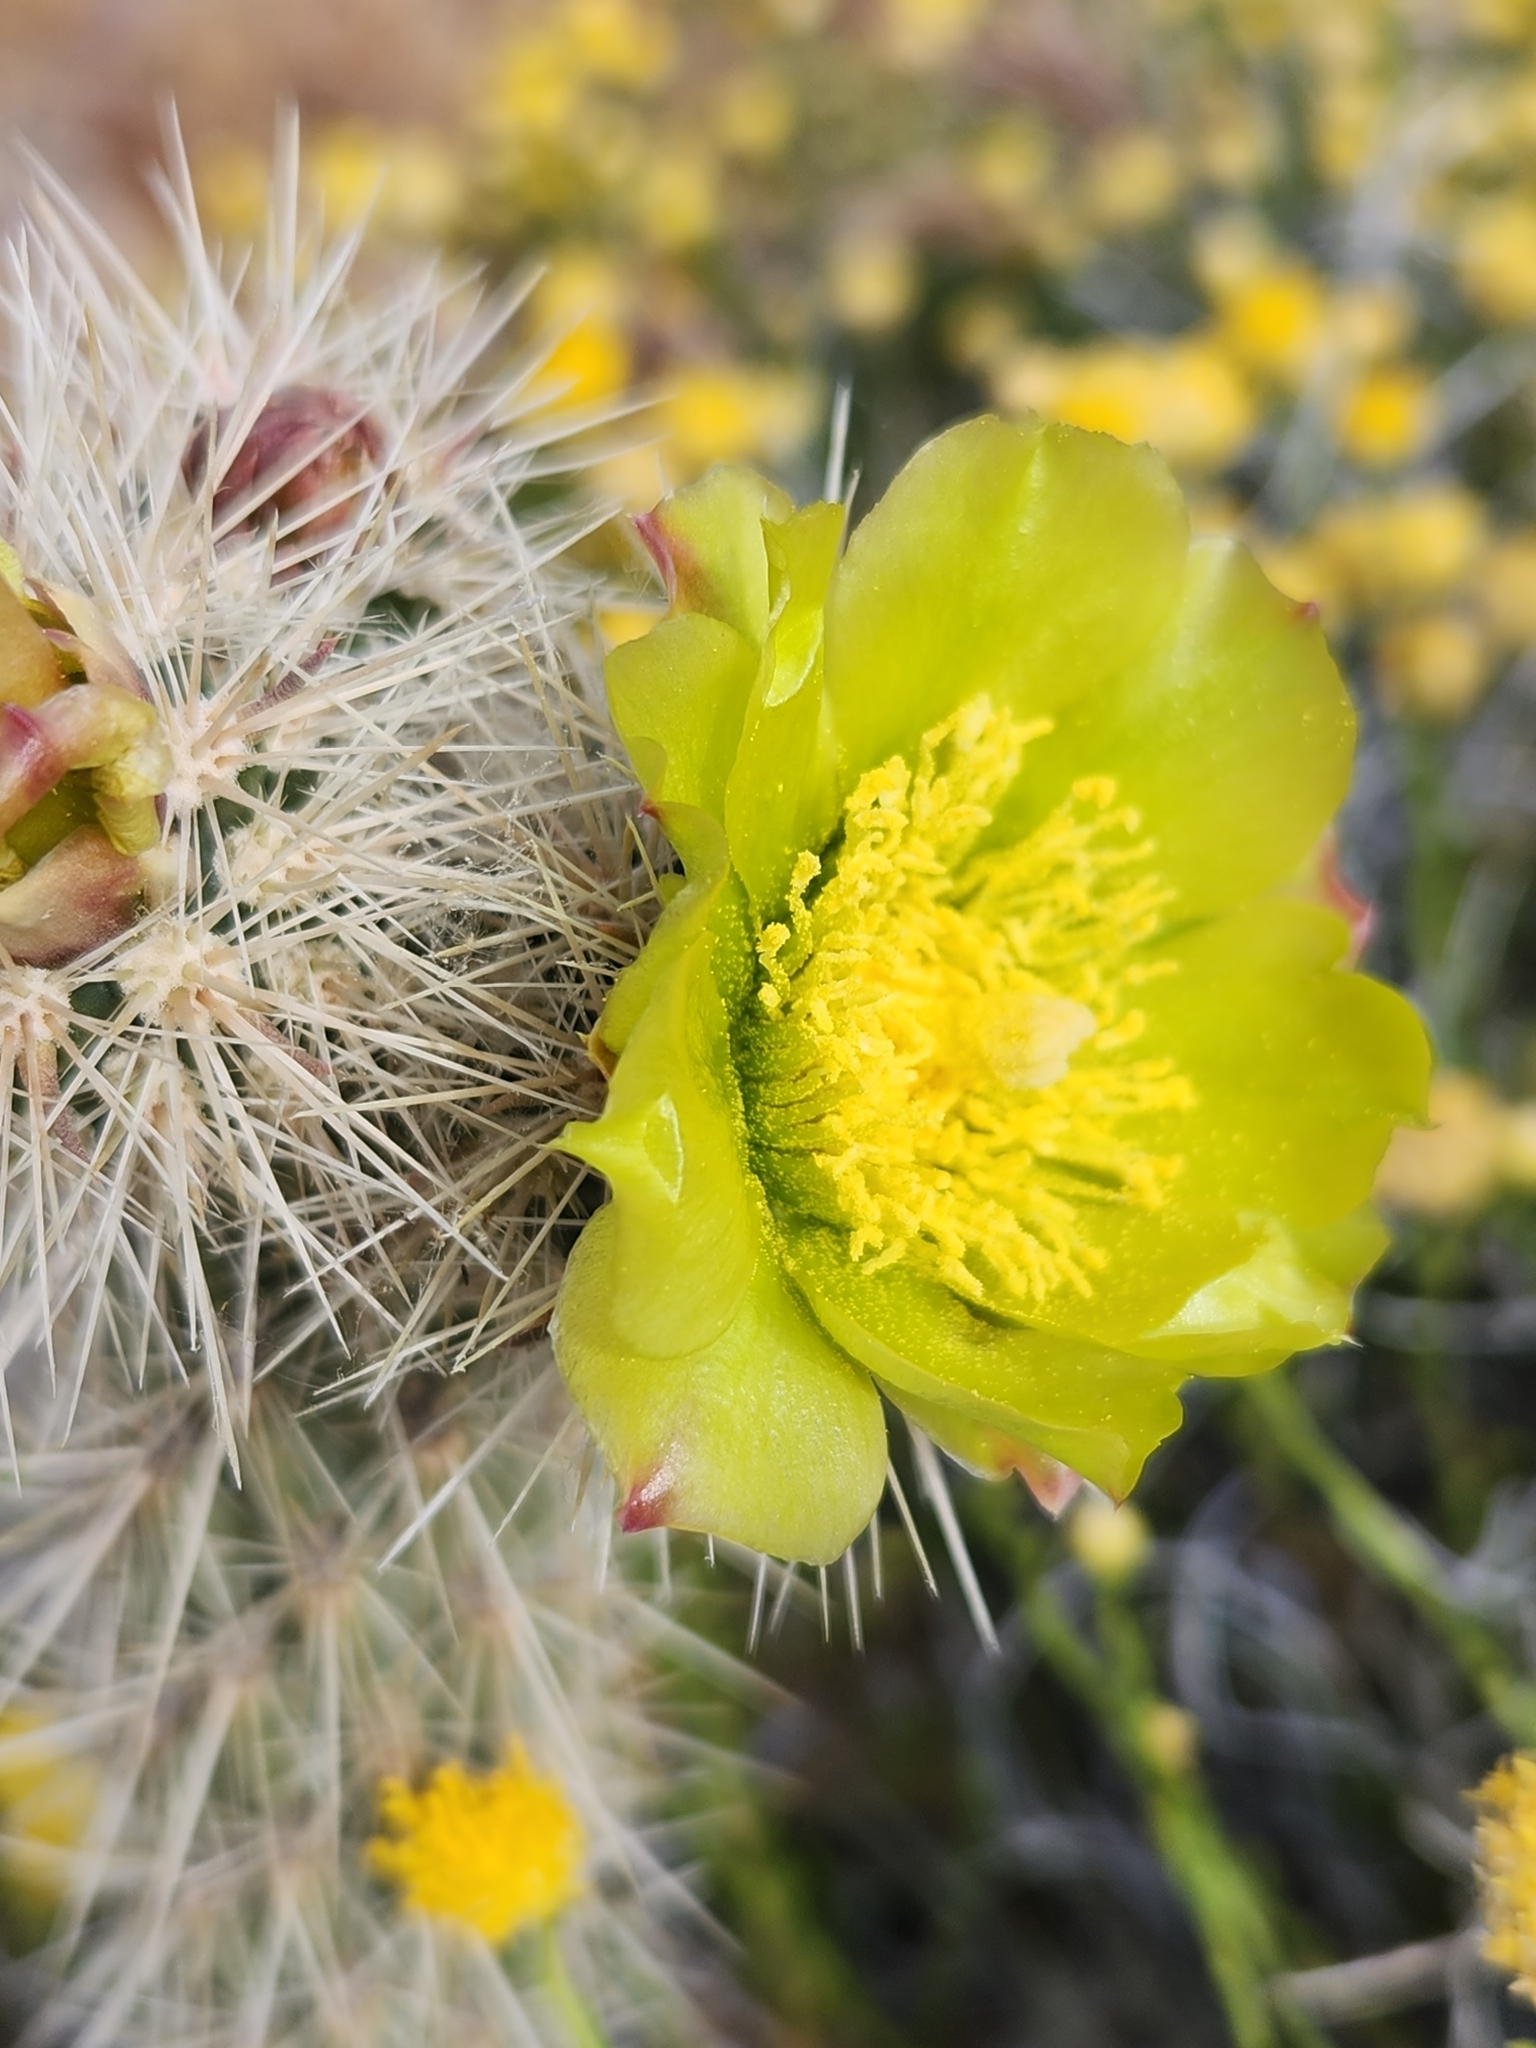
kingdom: Plantae
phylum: Tracheophyta
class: Magnoliopsida
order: Caryophyllales
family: Cactaceae
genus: Cylindropuntia
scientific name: Cylindropuntia ganderi
